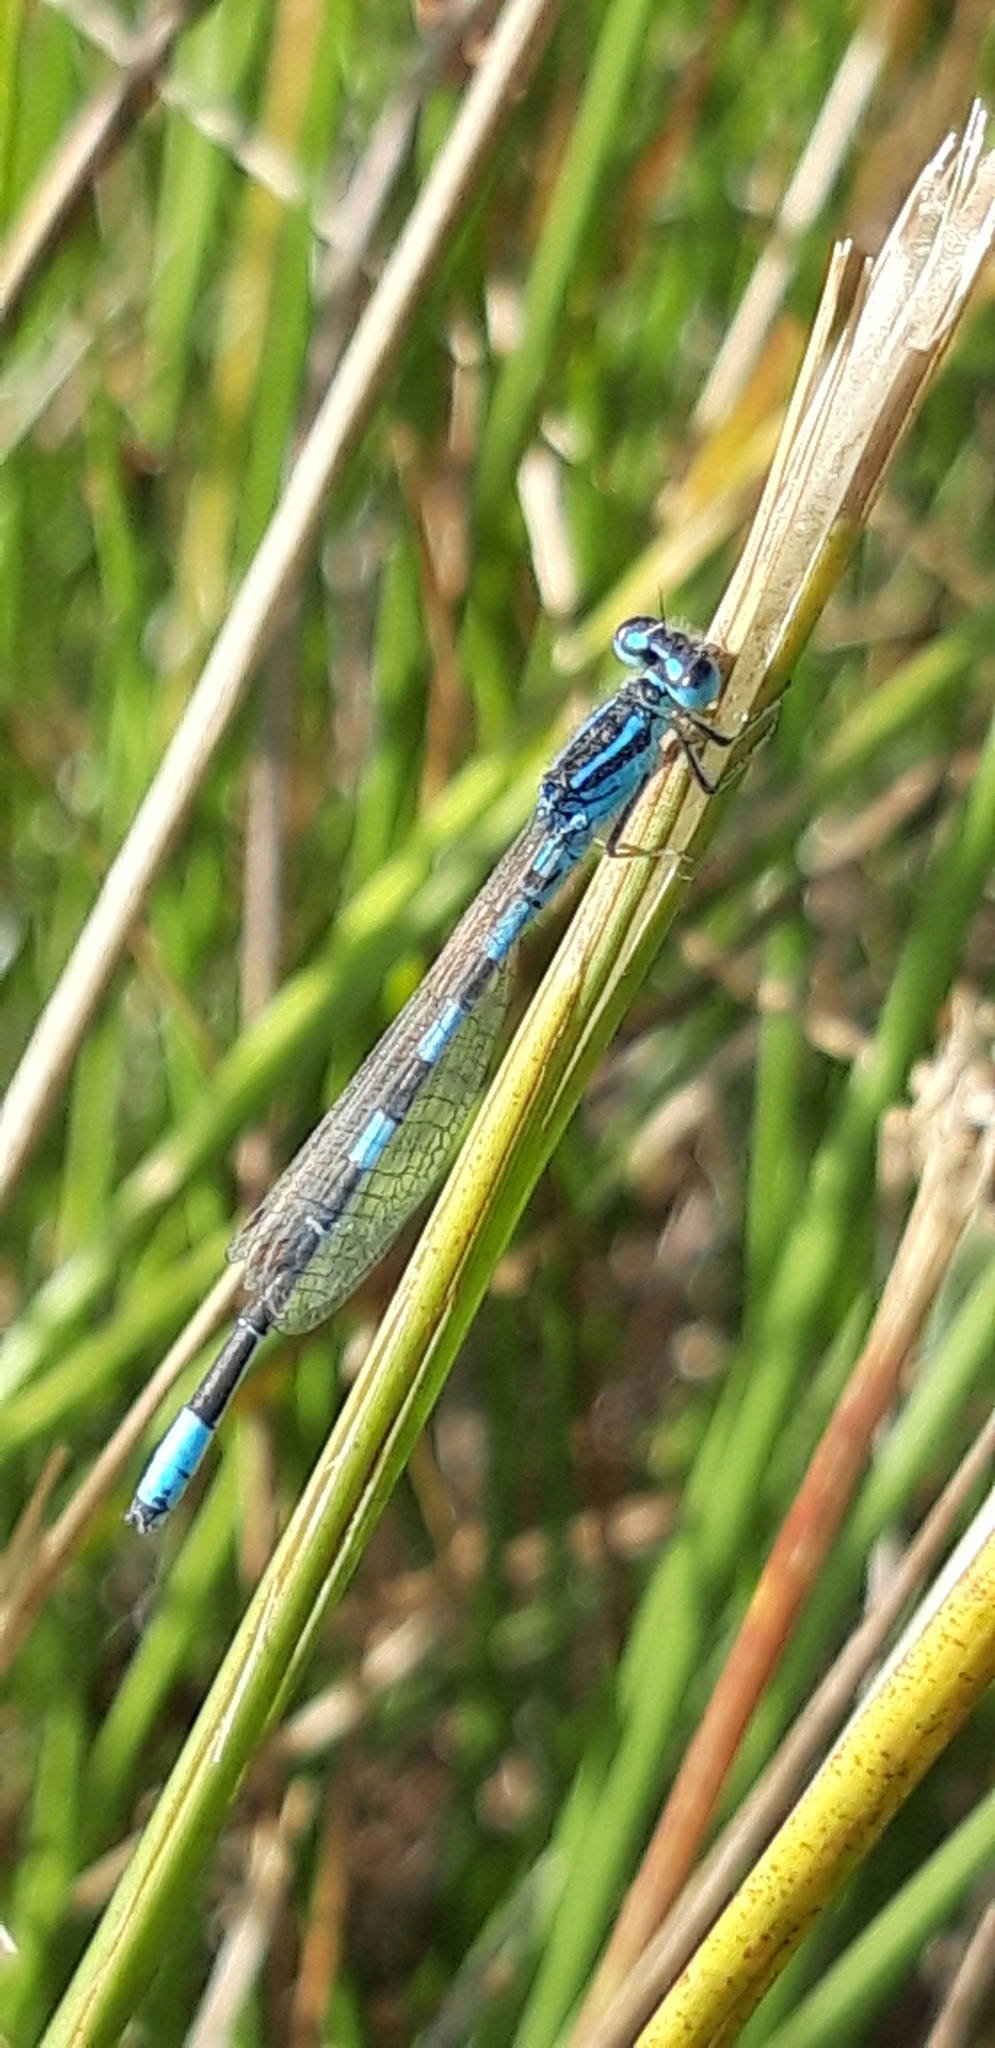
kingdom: Animalia
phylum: Arthropoda
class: Insecta
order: Odonata
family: Coenagrionidae
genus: Coenagrion
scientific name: Coenagrion scitulum
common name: Dainty bluet
